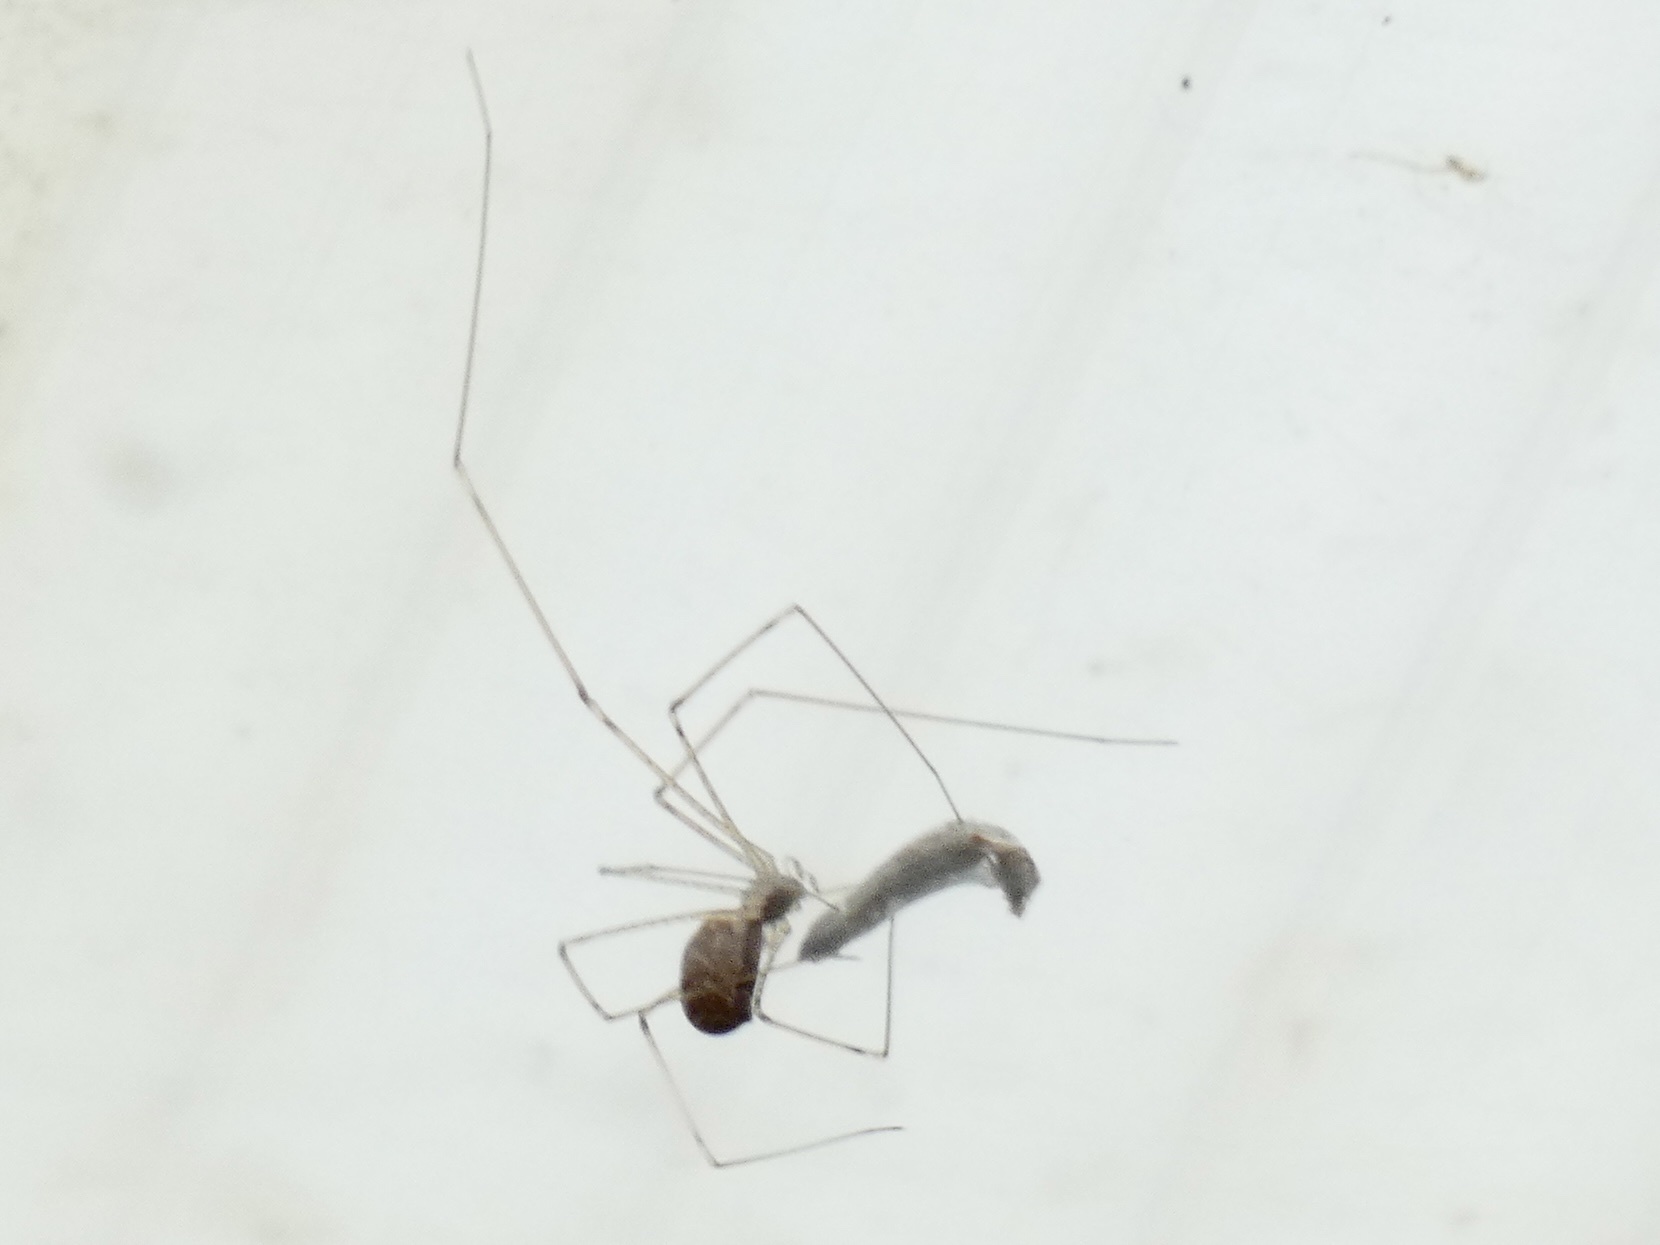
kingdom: Animalia
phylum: Arthropoda
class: Arachnida
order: Araneae
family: Pholcidae
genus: Holocnemus
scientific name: Holocnemus pluchei
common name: Marbled cellar spider
